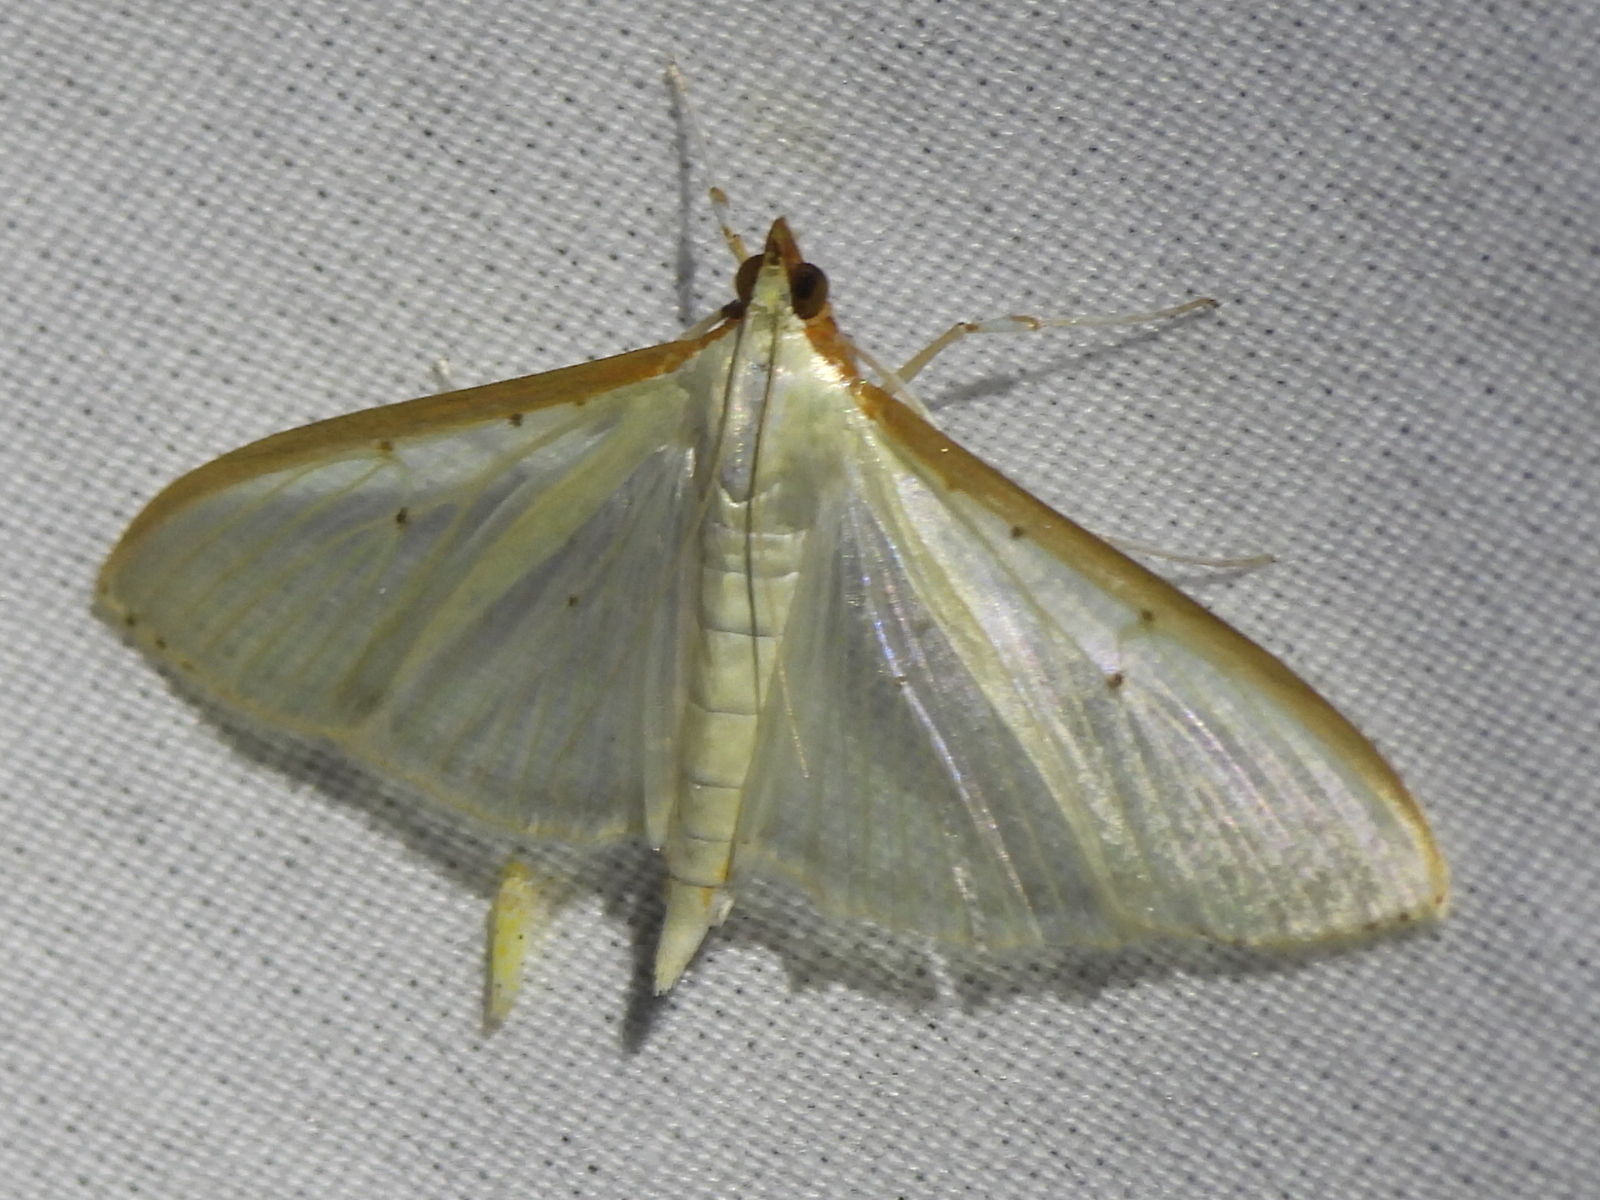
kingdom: Animalia
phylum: Arthropoda
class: Insecta
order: Lepidoptera
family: Crambidae
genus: Palpita
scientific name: Palpita quadristigmalis
